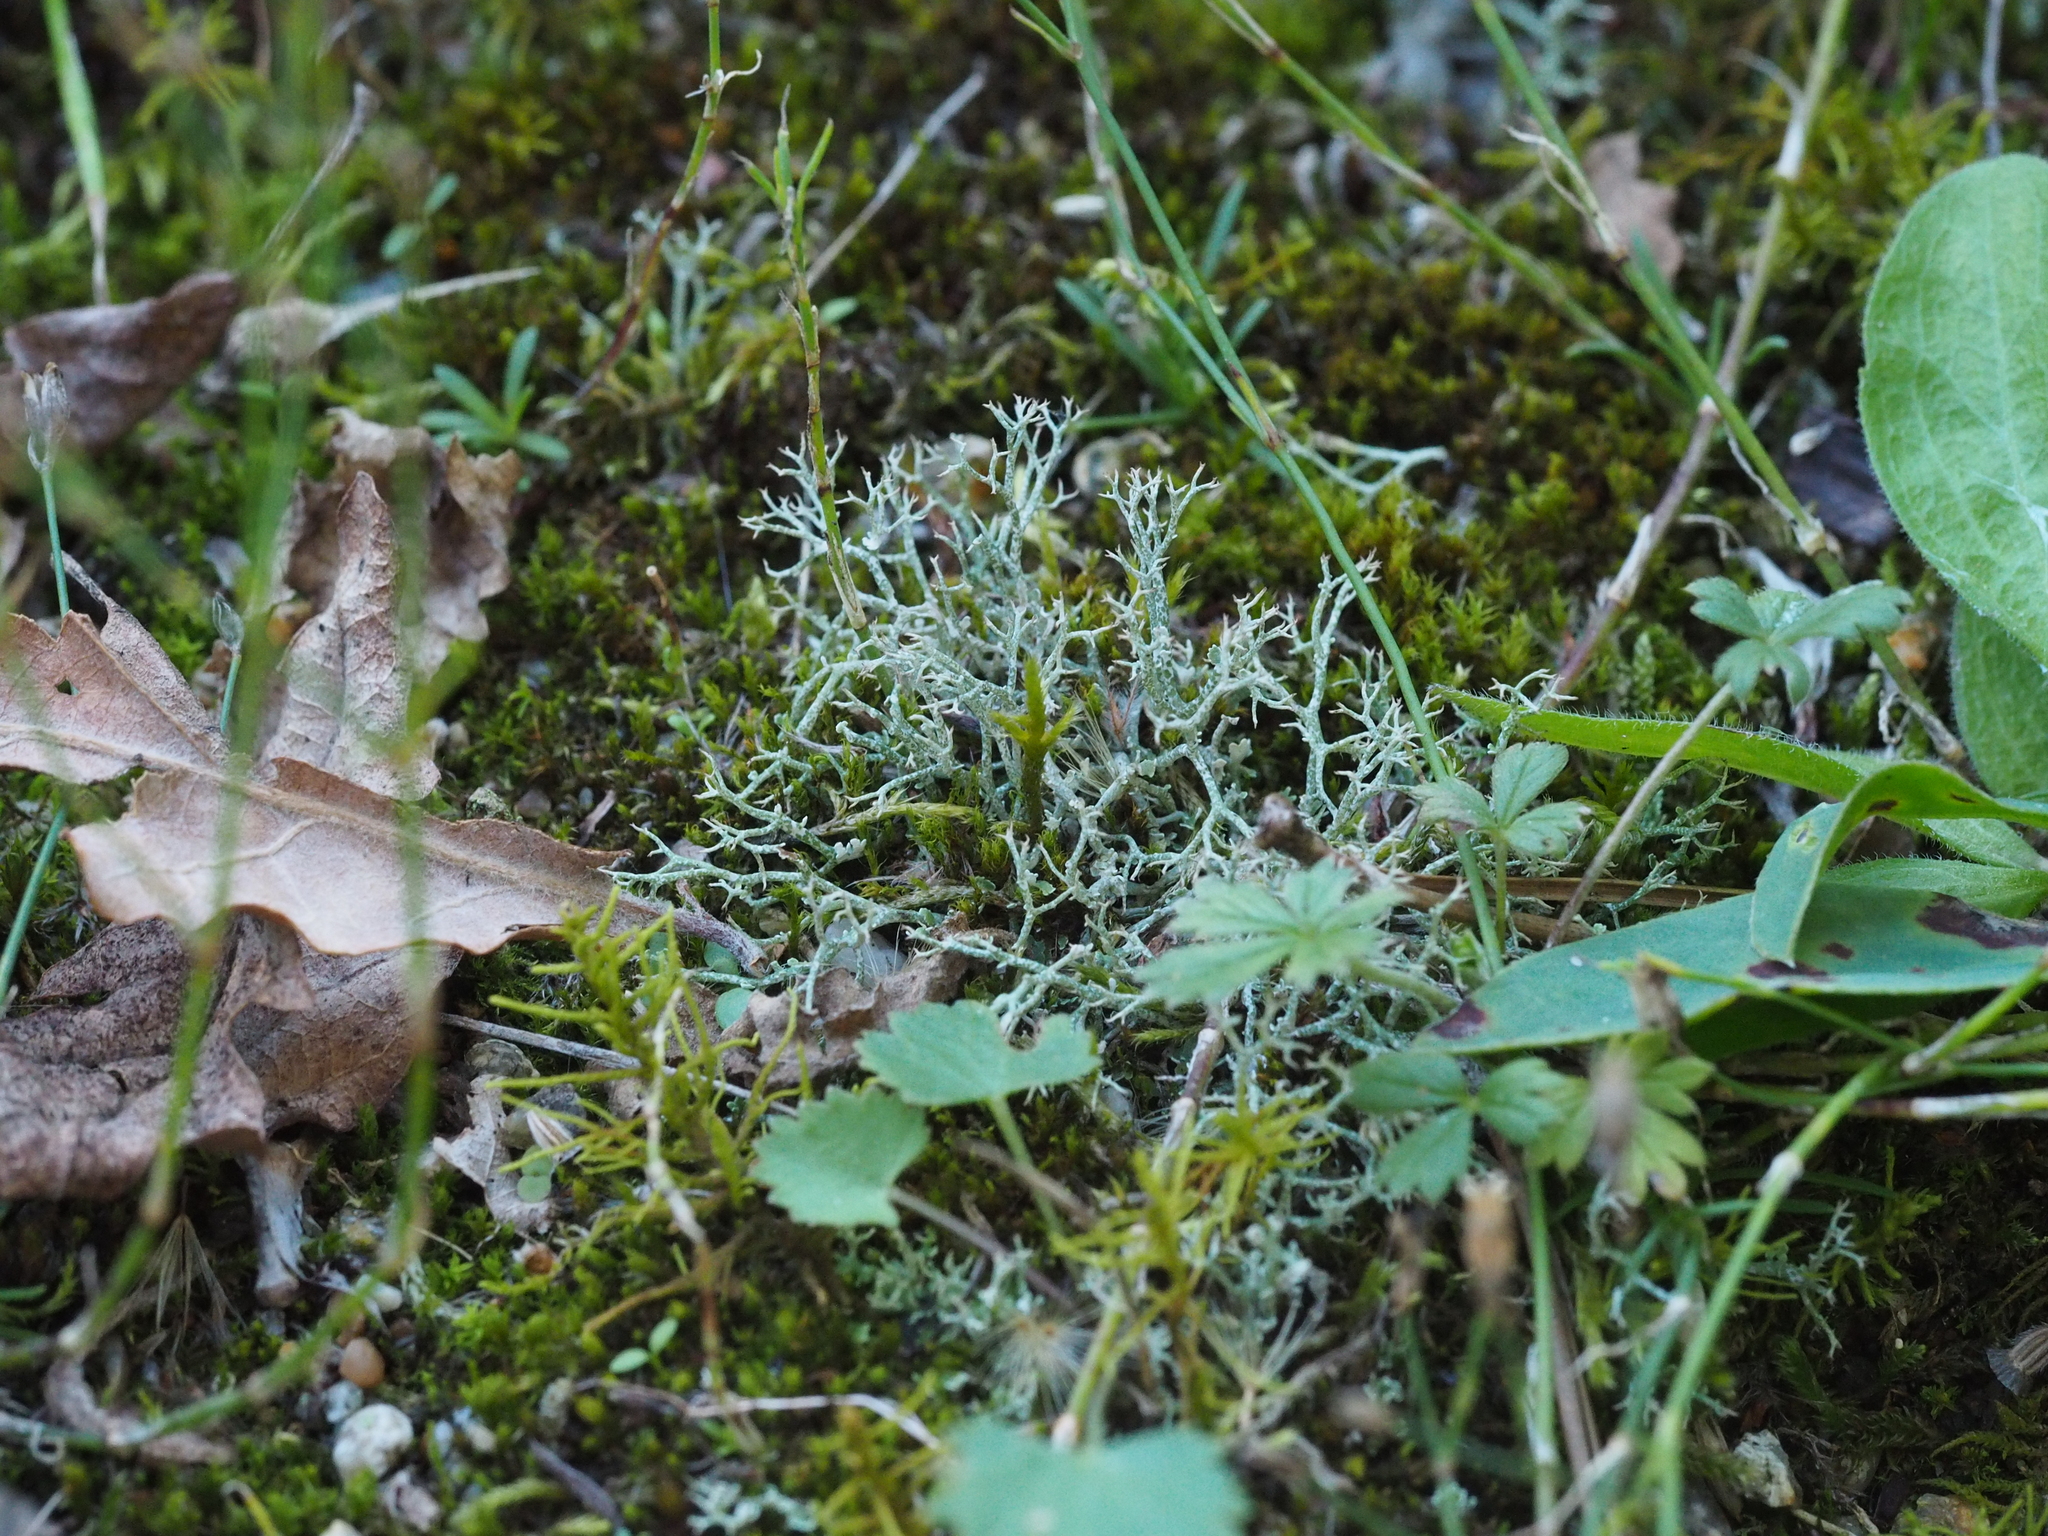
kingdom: Fungi
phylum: Ascomycota
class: Lecanoromycetes
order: Lecanorales
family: Cladoniaceae
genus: Cladonia
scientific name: Cladonia rangiformis
